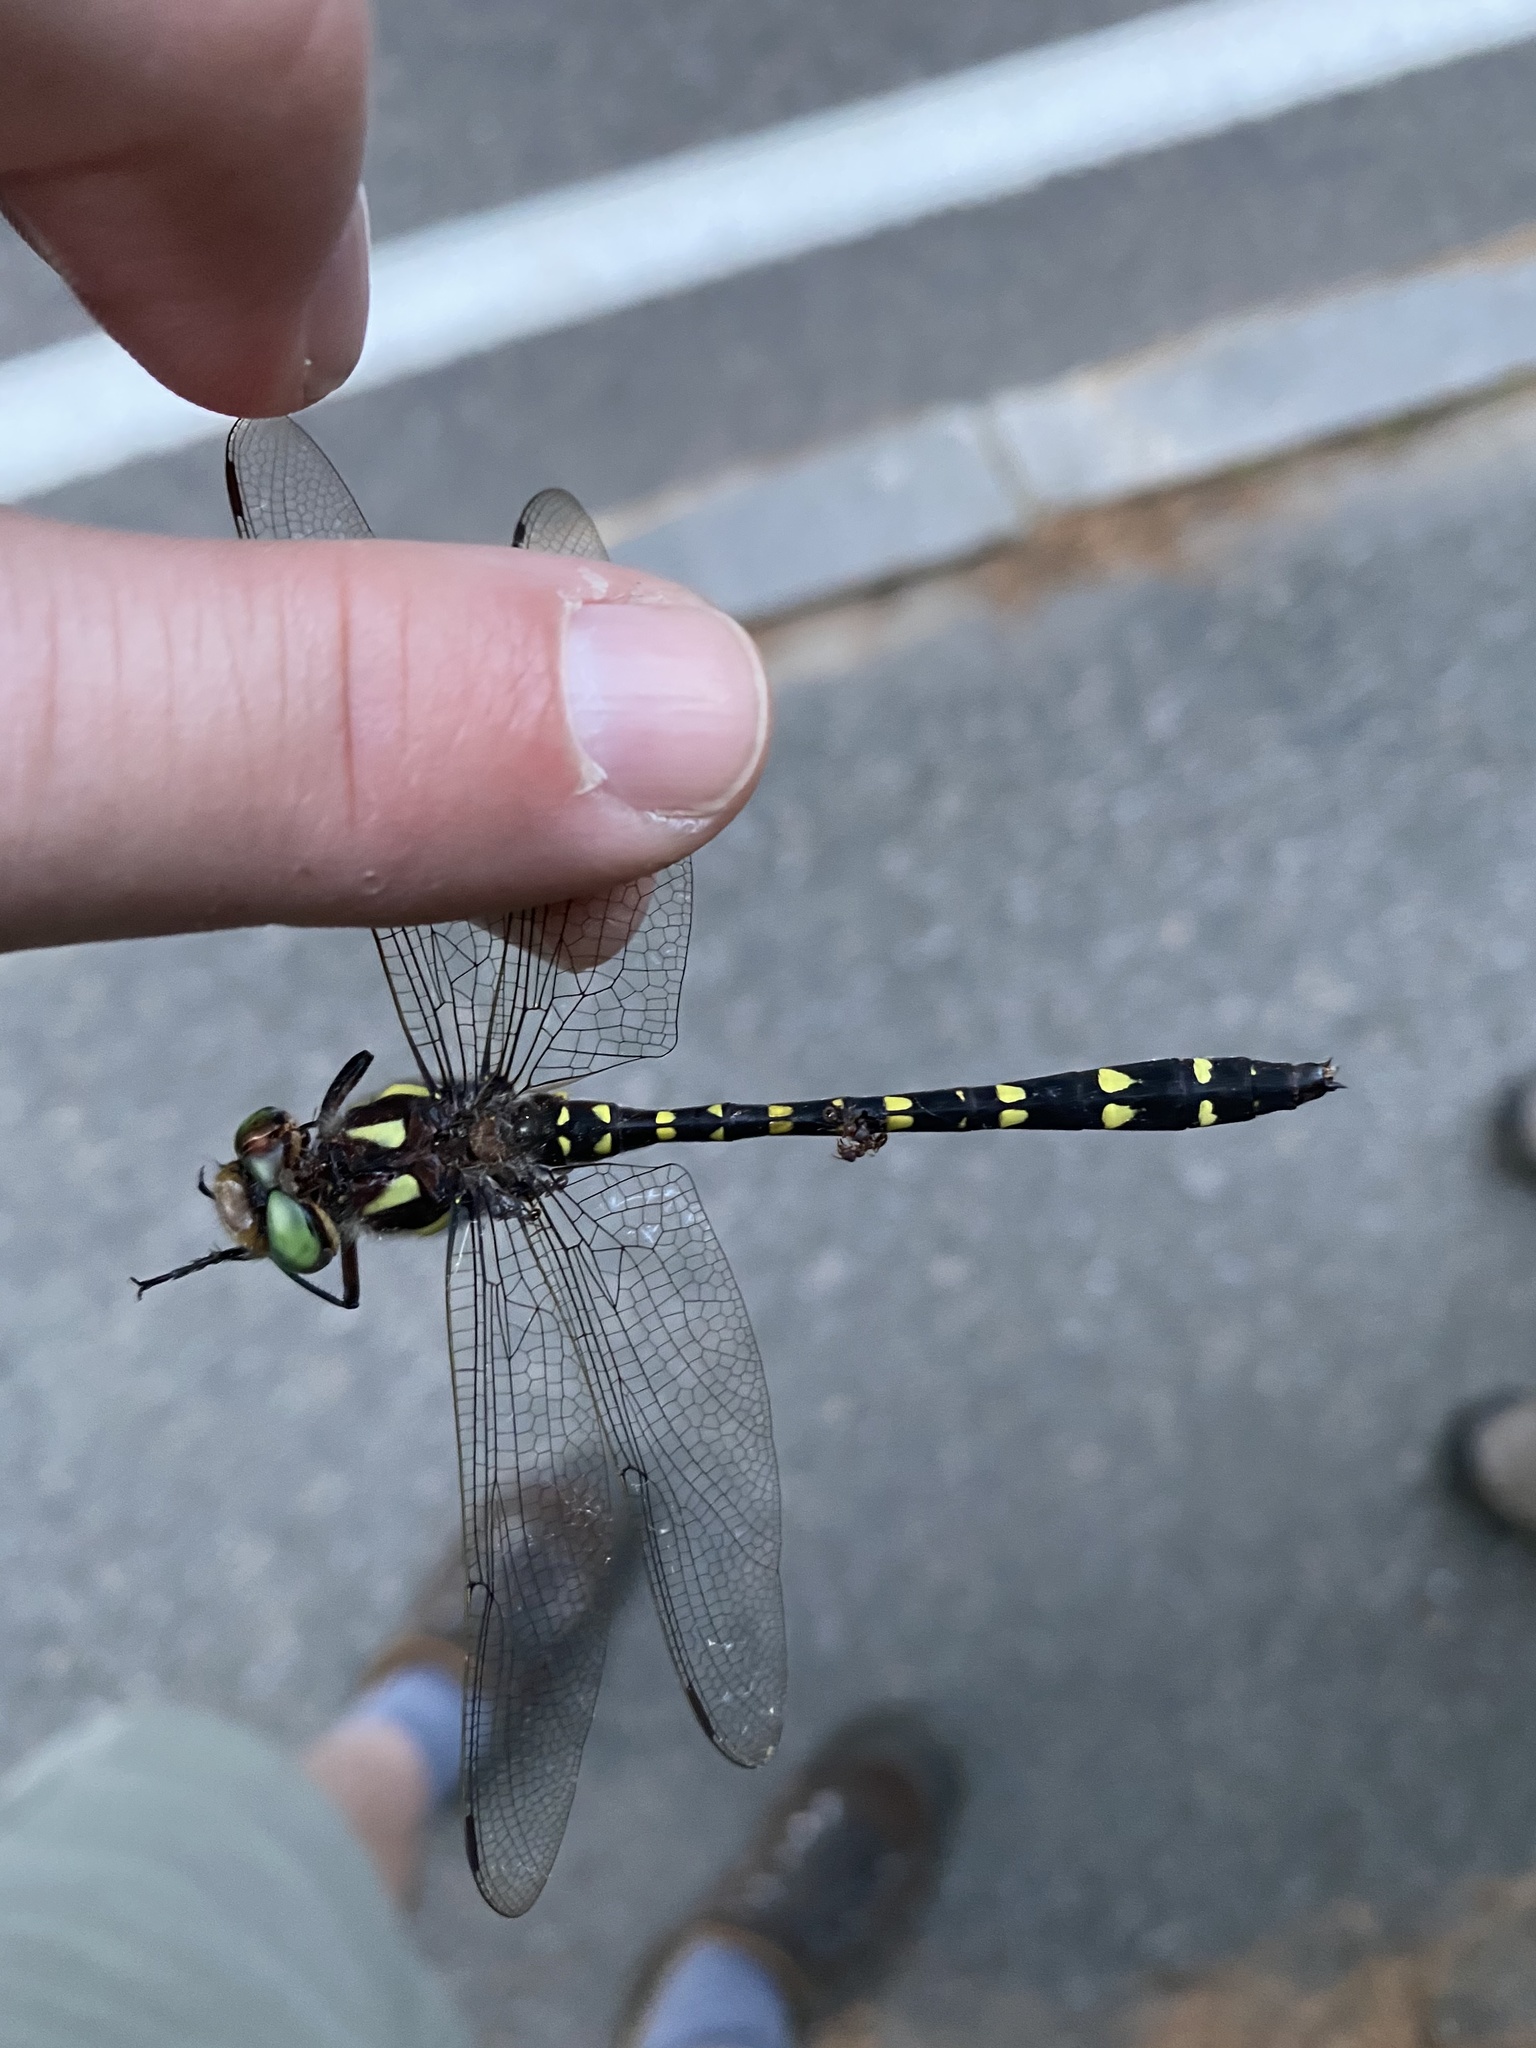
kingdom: Animalia
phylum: Arthropoda
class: Insecta
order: Odonata
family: Cordulegastridae
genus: Cordulegaster
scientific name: Cordulegaster maculata
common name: Twin-spotted spiketail
